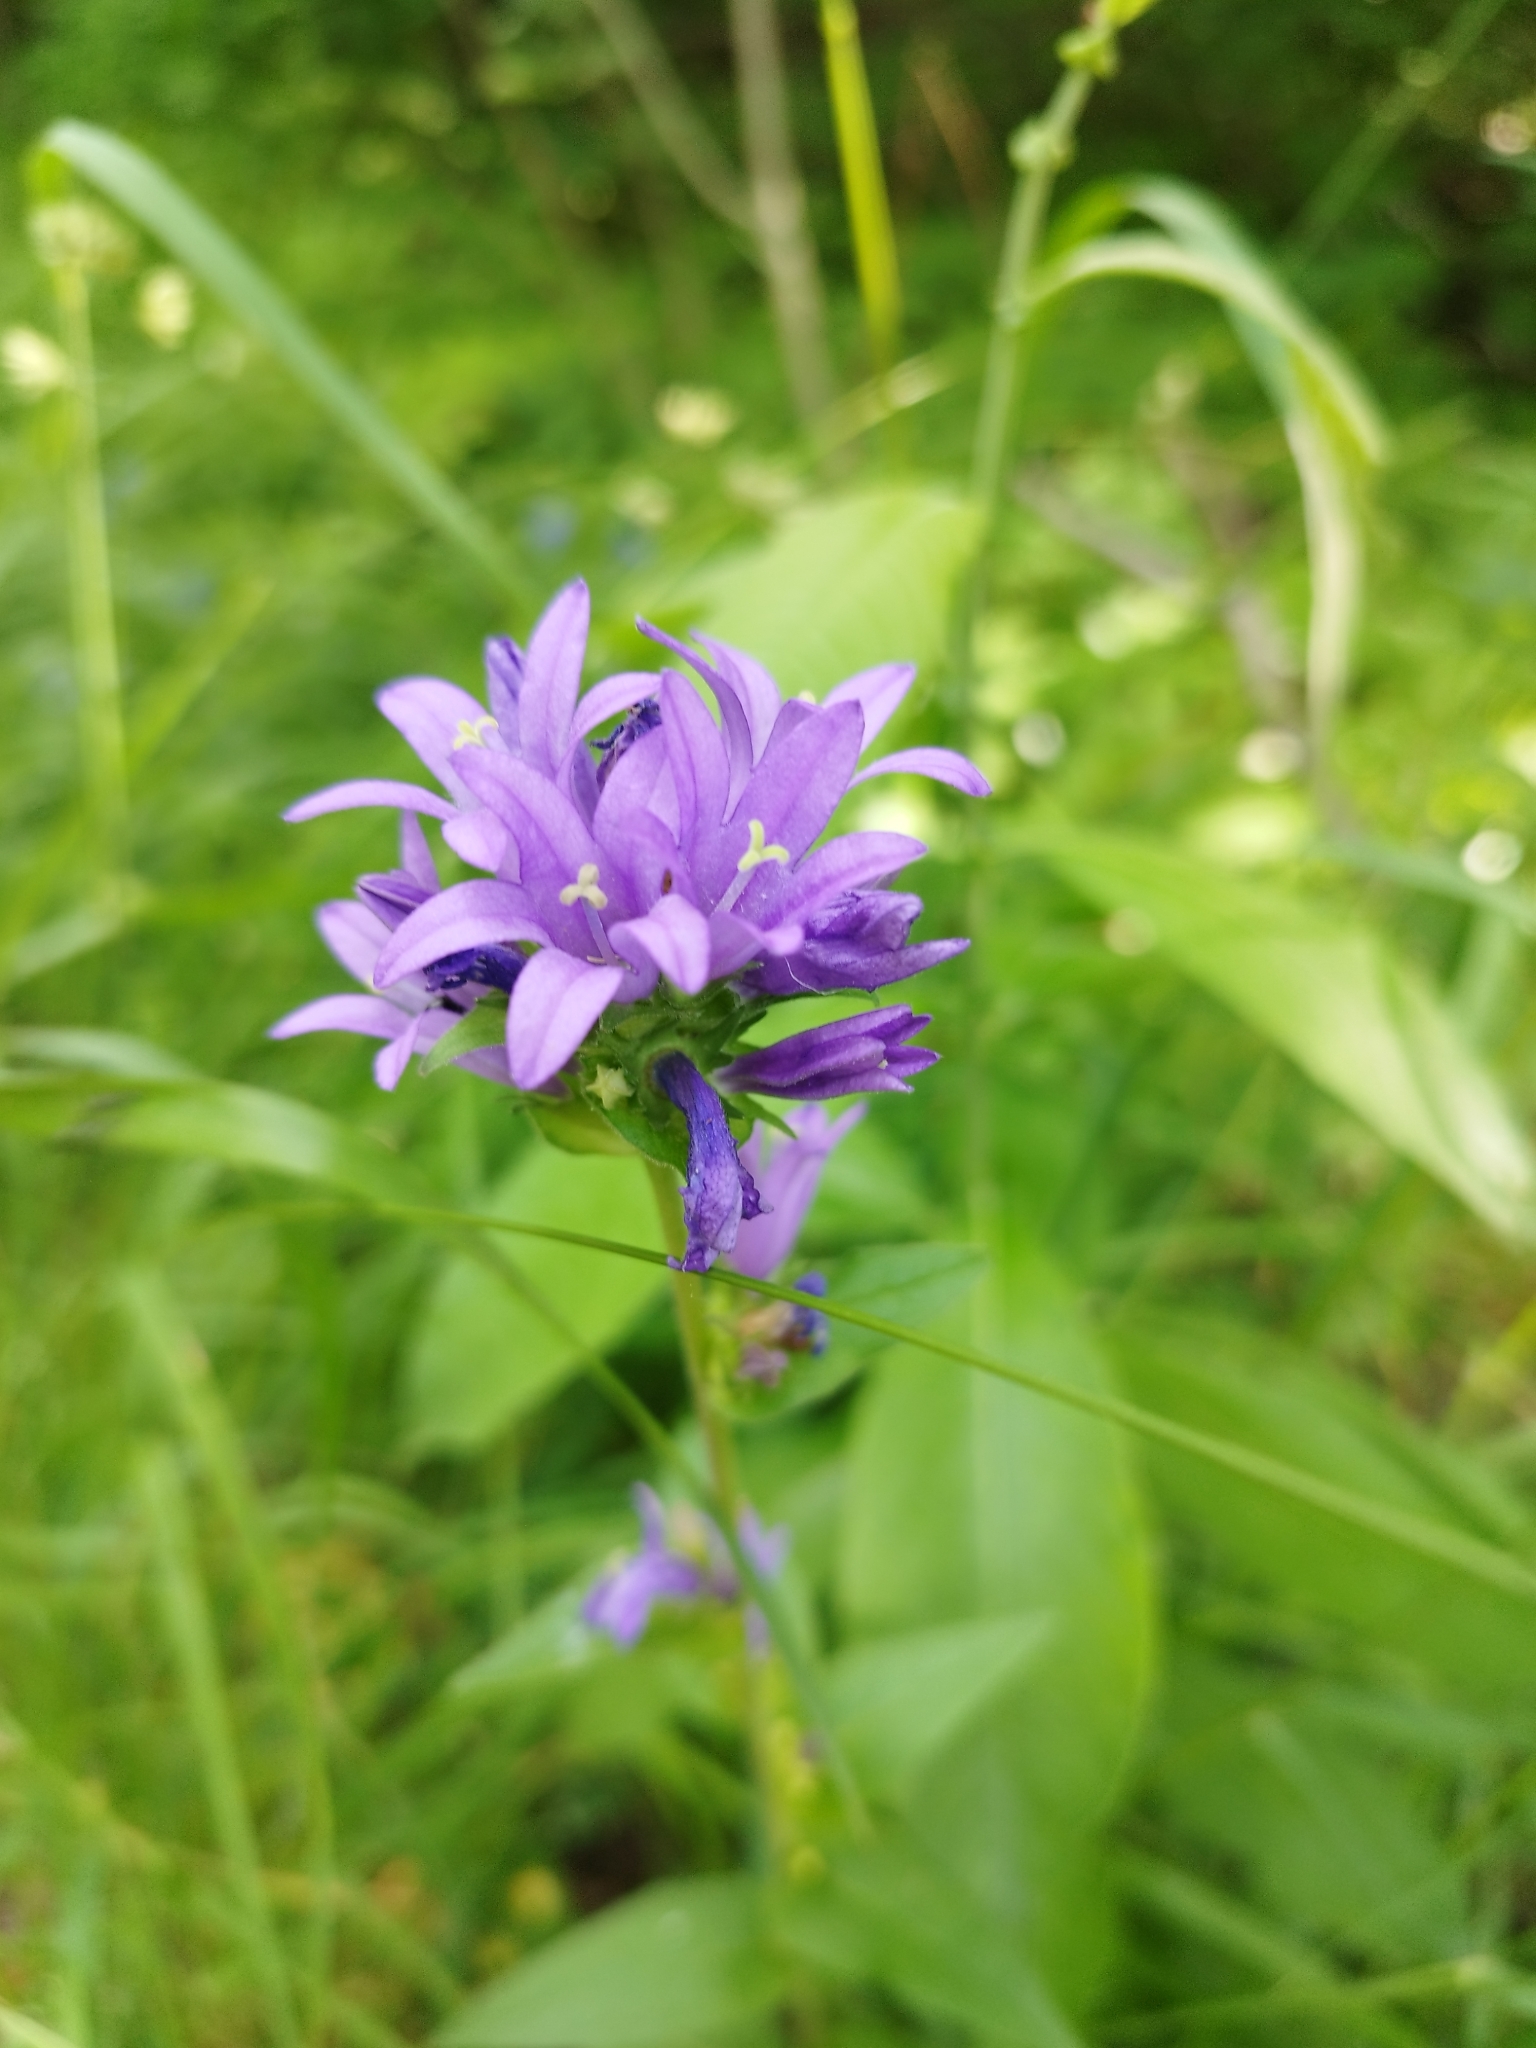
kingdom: Plantae
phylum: Tracheophyta
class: Magnoliopsida
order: Asterales
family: Campanulaceae
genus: Campanula
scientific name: Campanula glomerata
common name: Clustered bellflower
